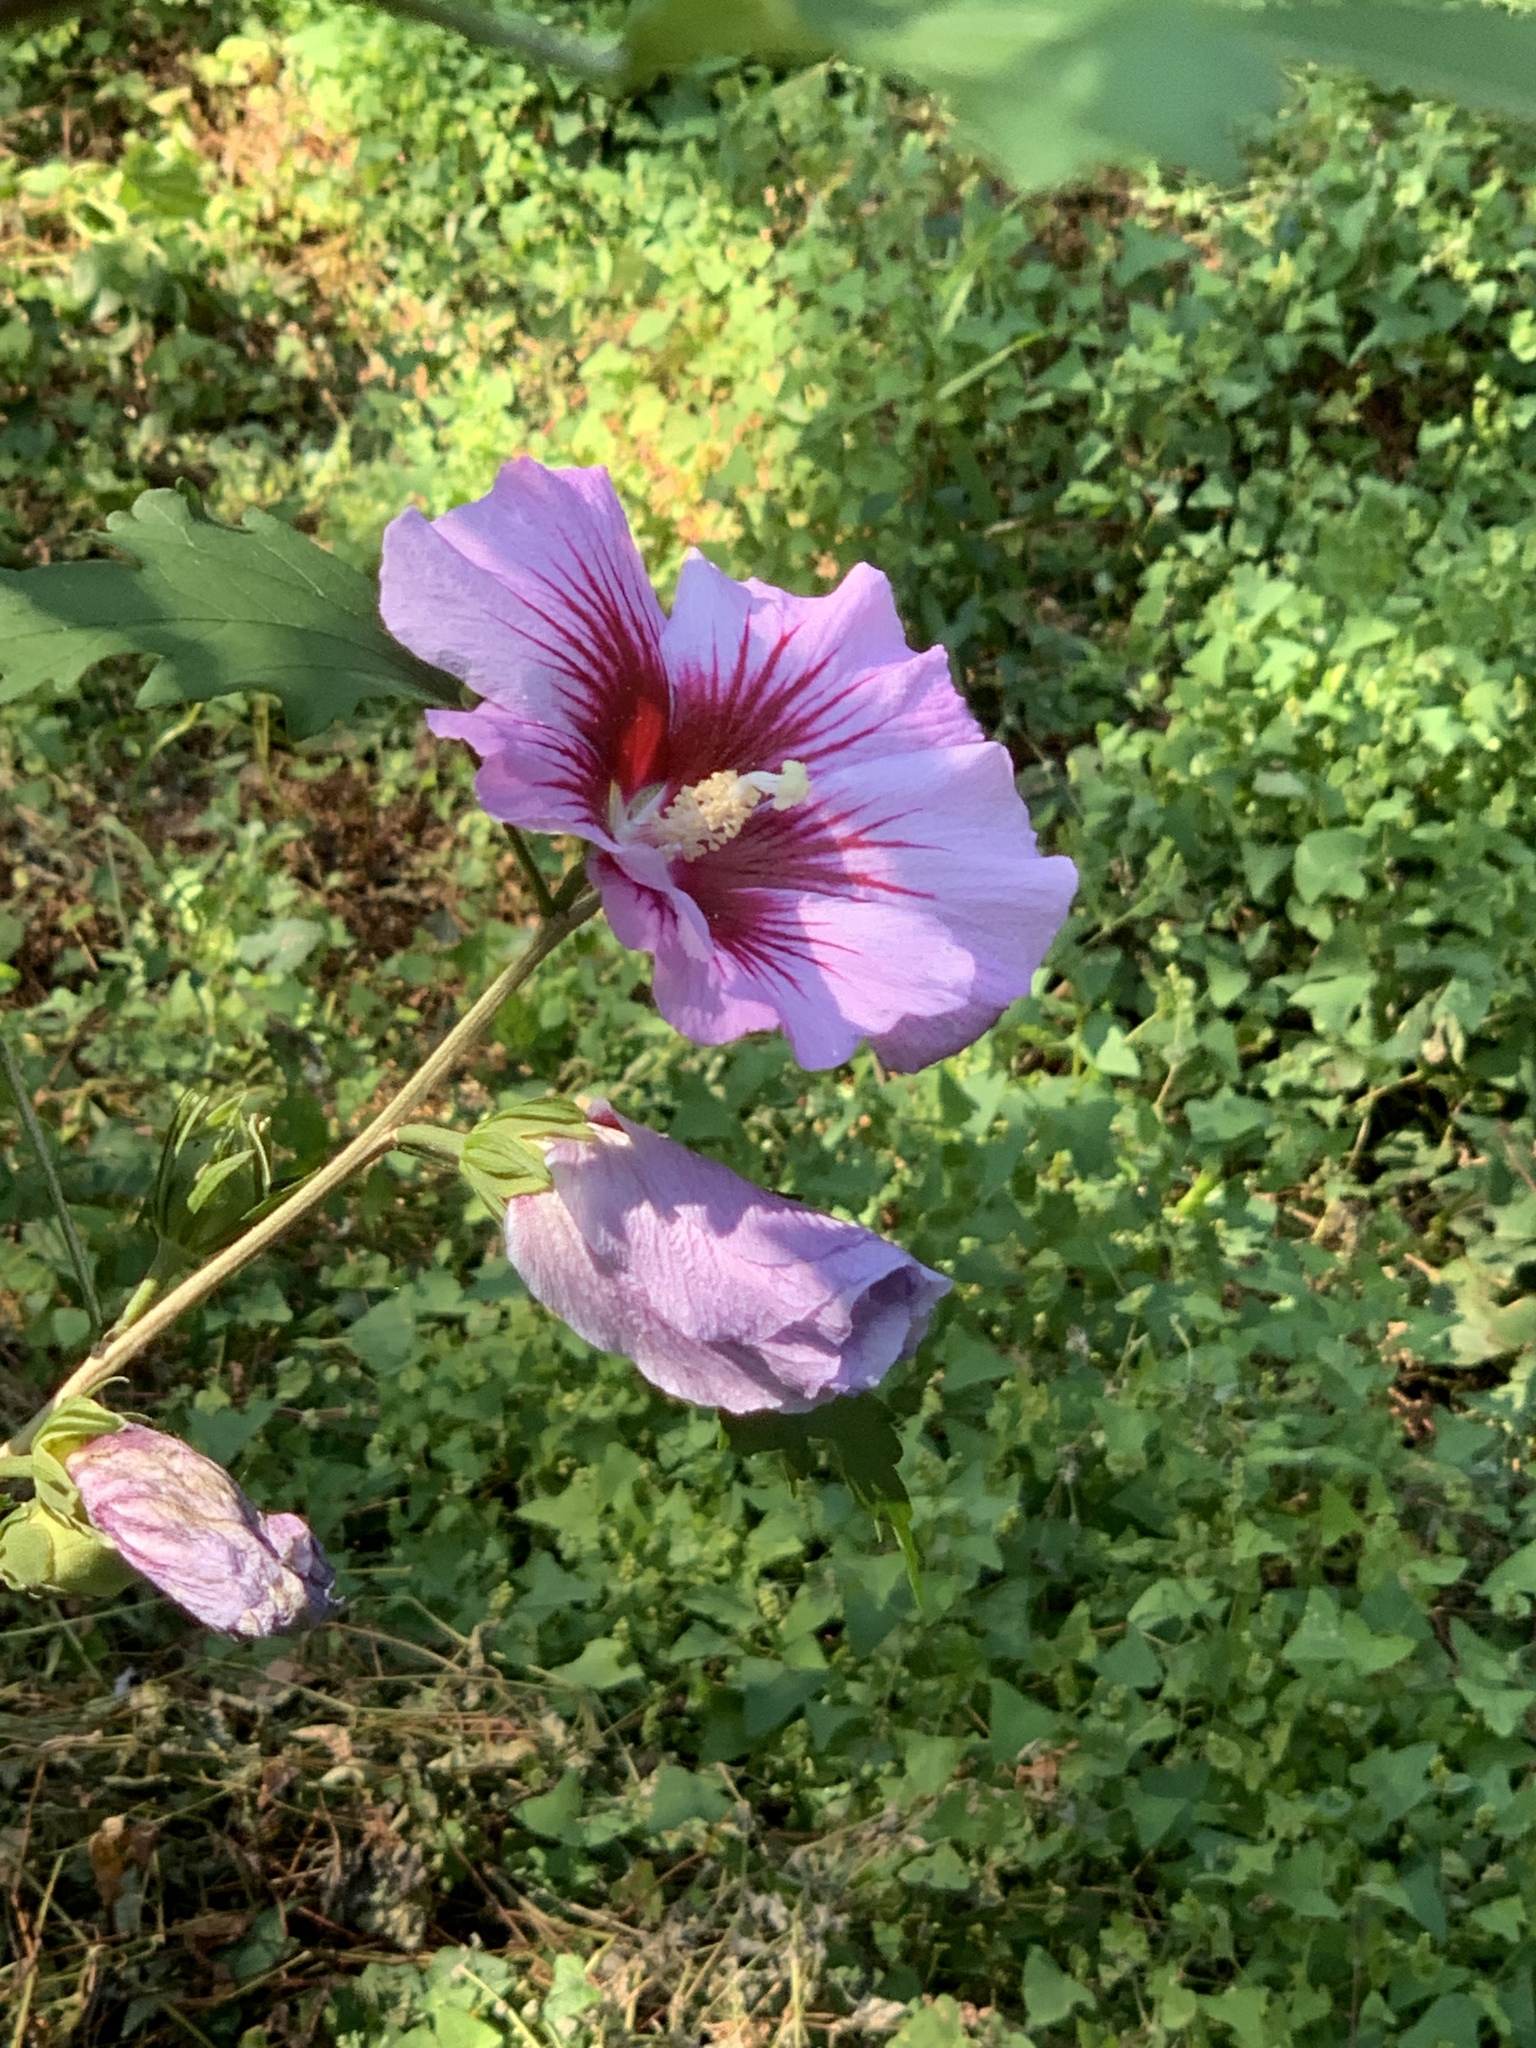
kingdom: Plantae
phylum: Tracheophyta
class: Magnoliopsida
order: Malvales
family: Malvaceae
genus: Hibiscus
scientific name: Hibiscus syriacus
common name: Syrian ketmia
